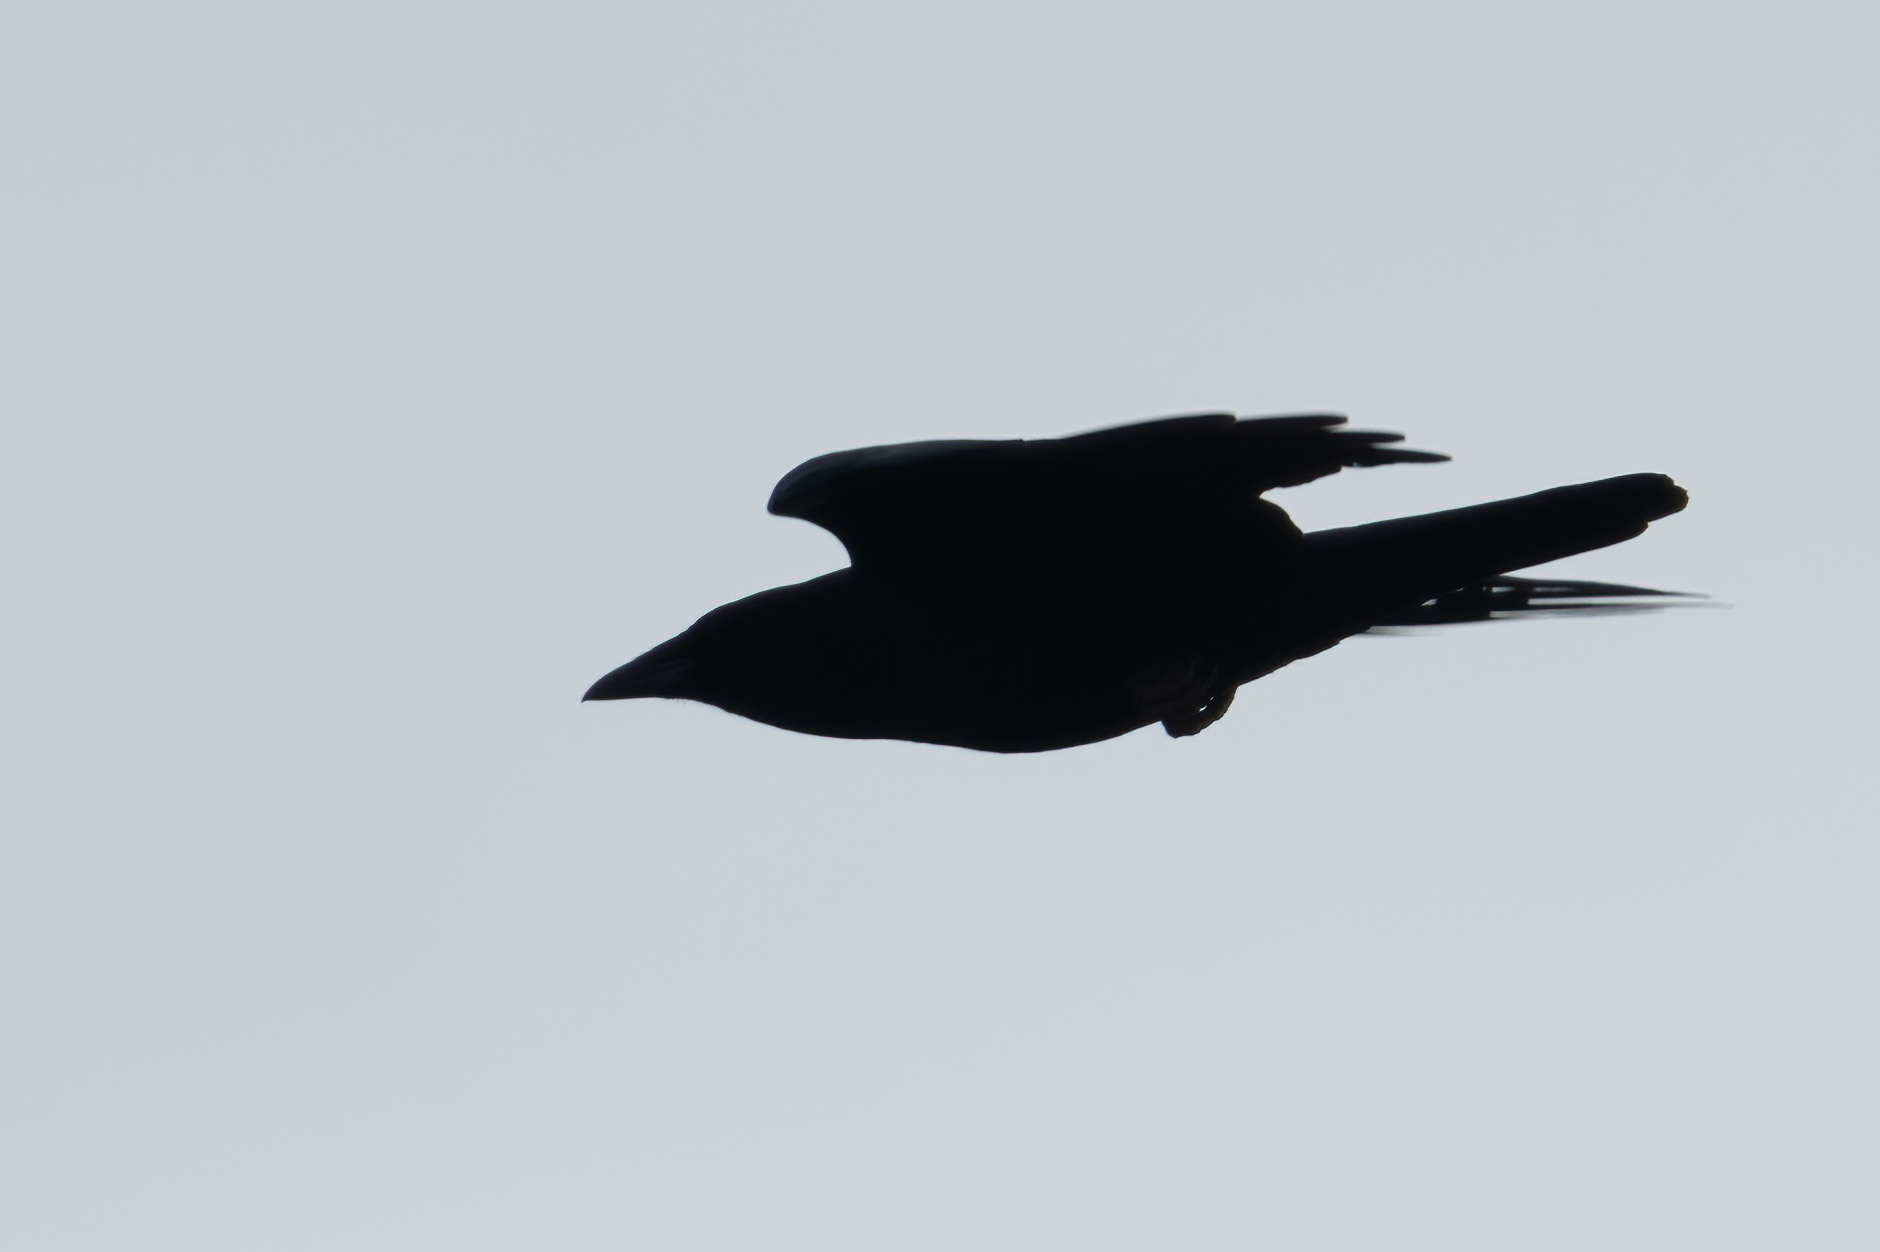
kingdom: Animalia
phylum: Chordata
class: Aves
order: Passeriformes
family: Corvidae
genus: Corvus
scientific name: Corvus brachyrhynchos
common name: American crow
